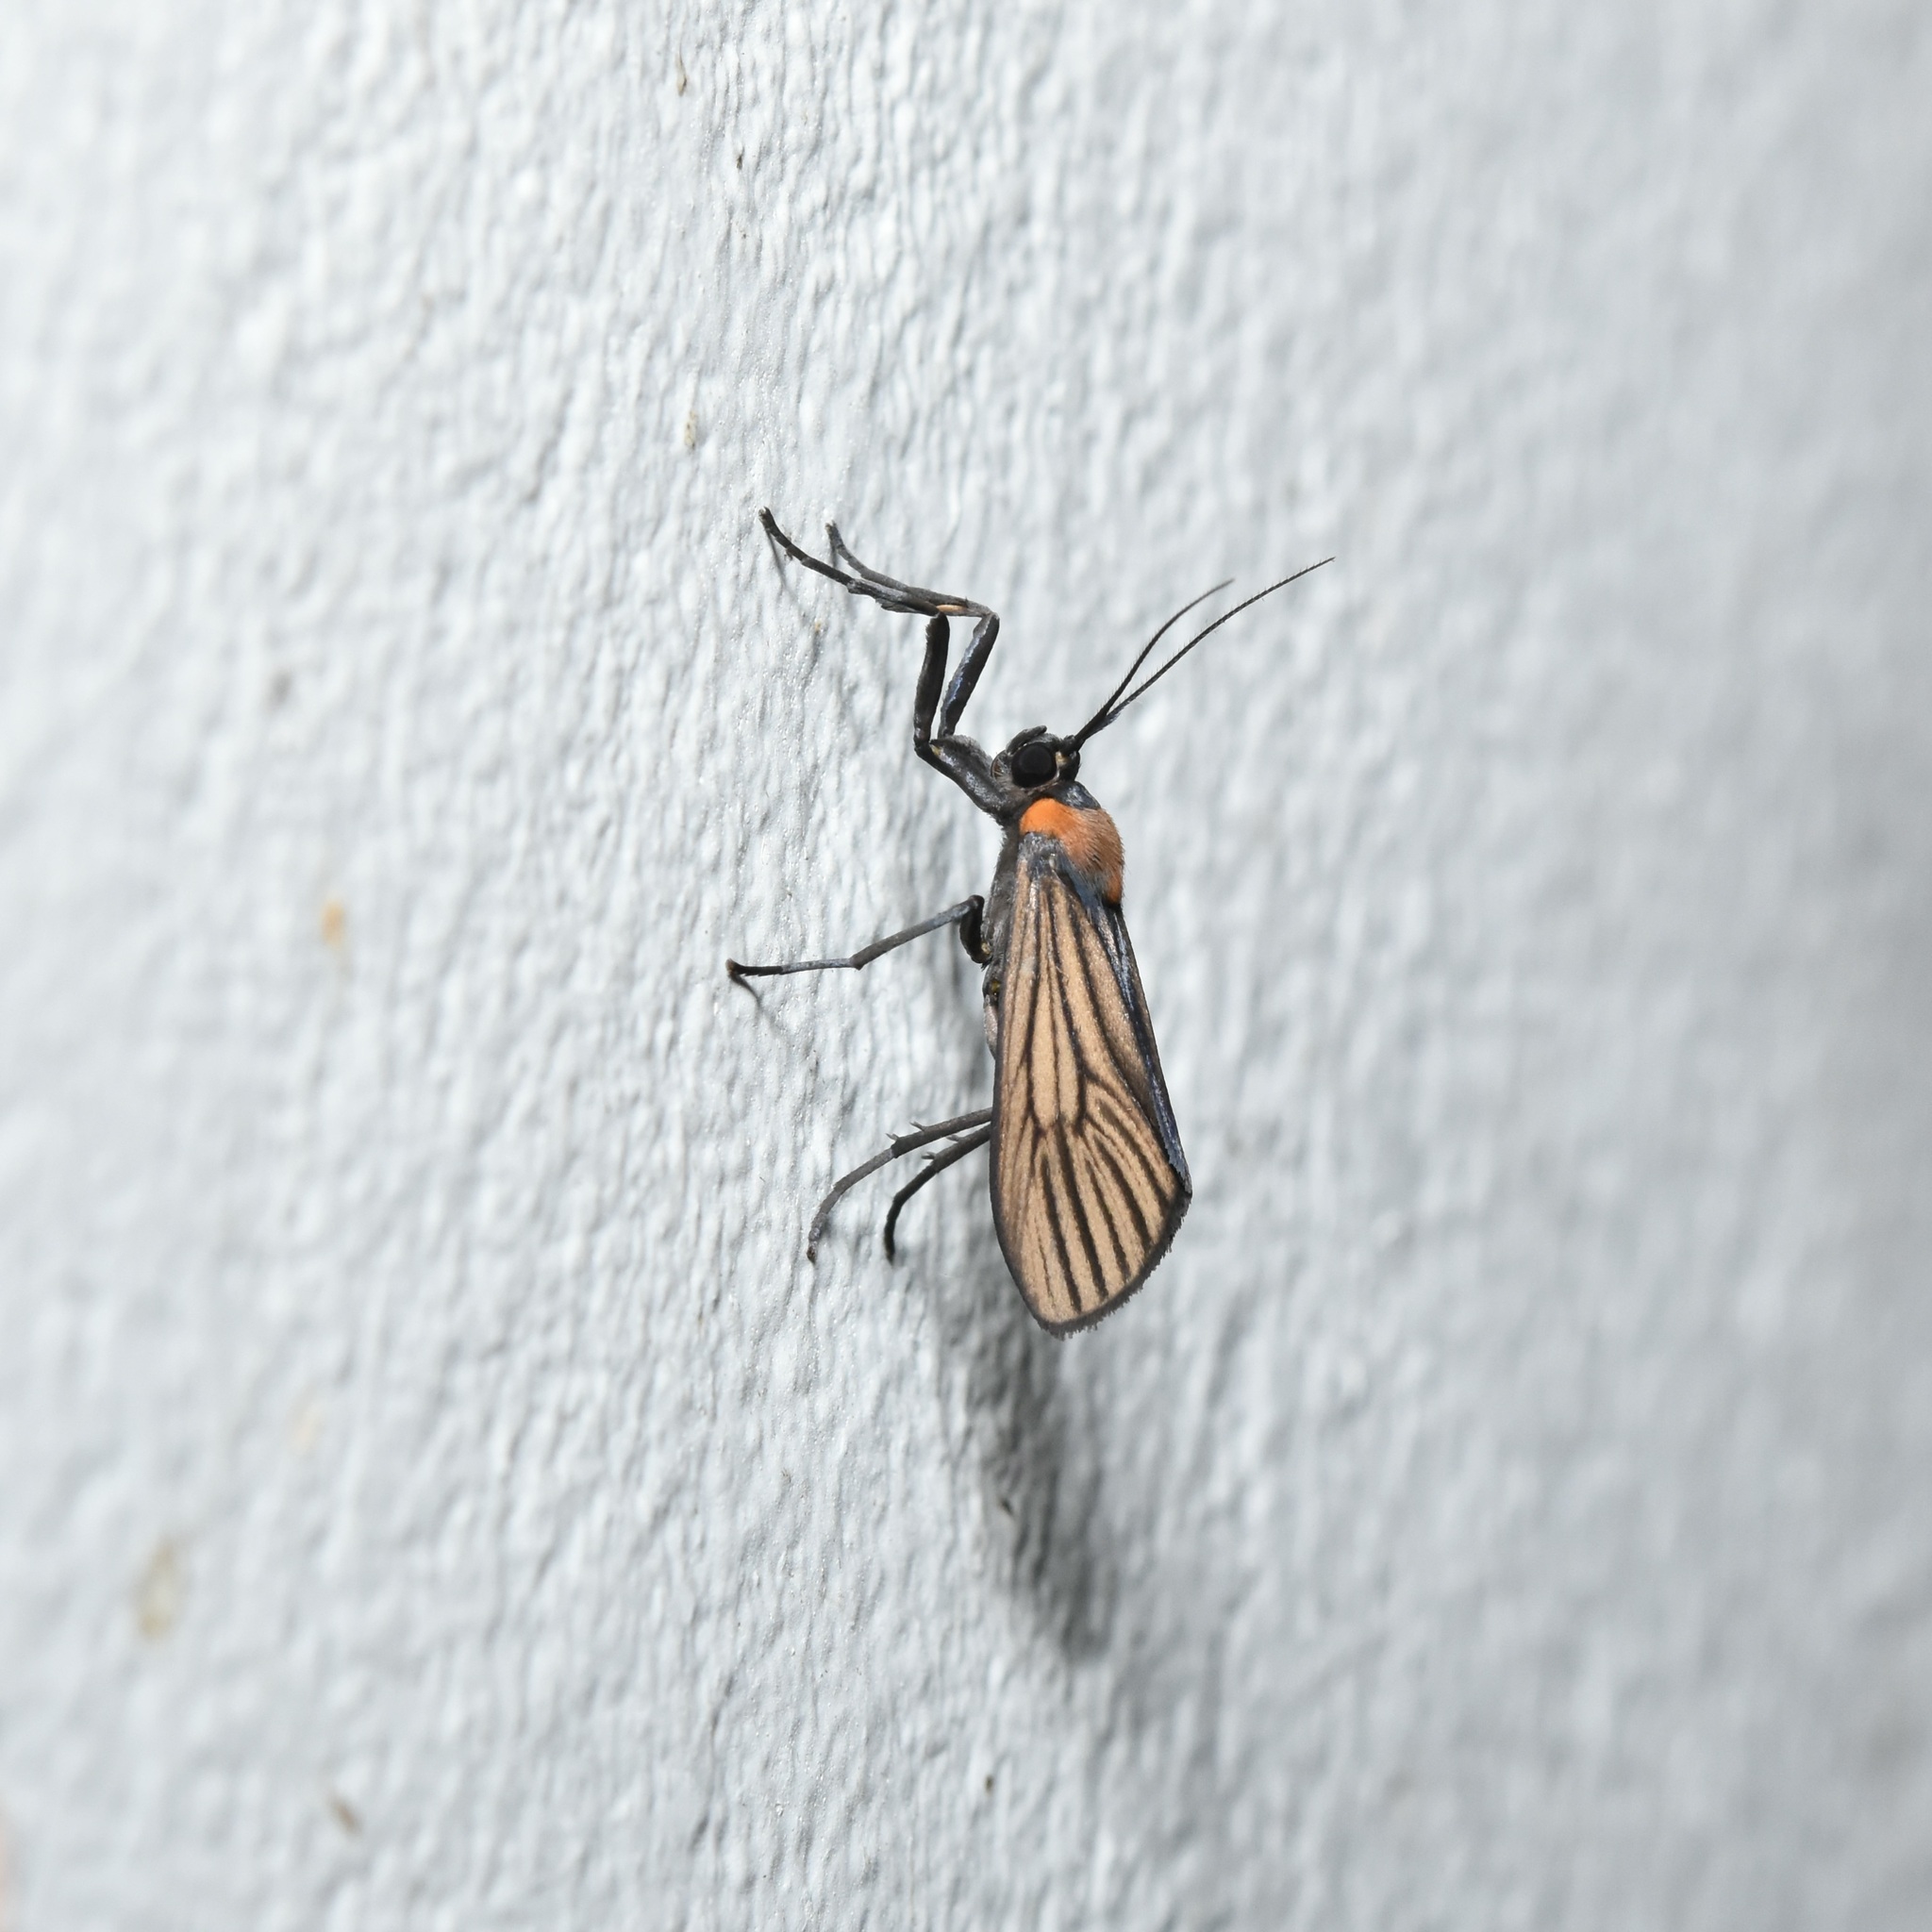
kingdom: Animalia
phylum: Arthropoda
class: Insecta
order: Lepidoptera
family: Erebidae
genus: Antona
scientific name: Antona diffinis
